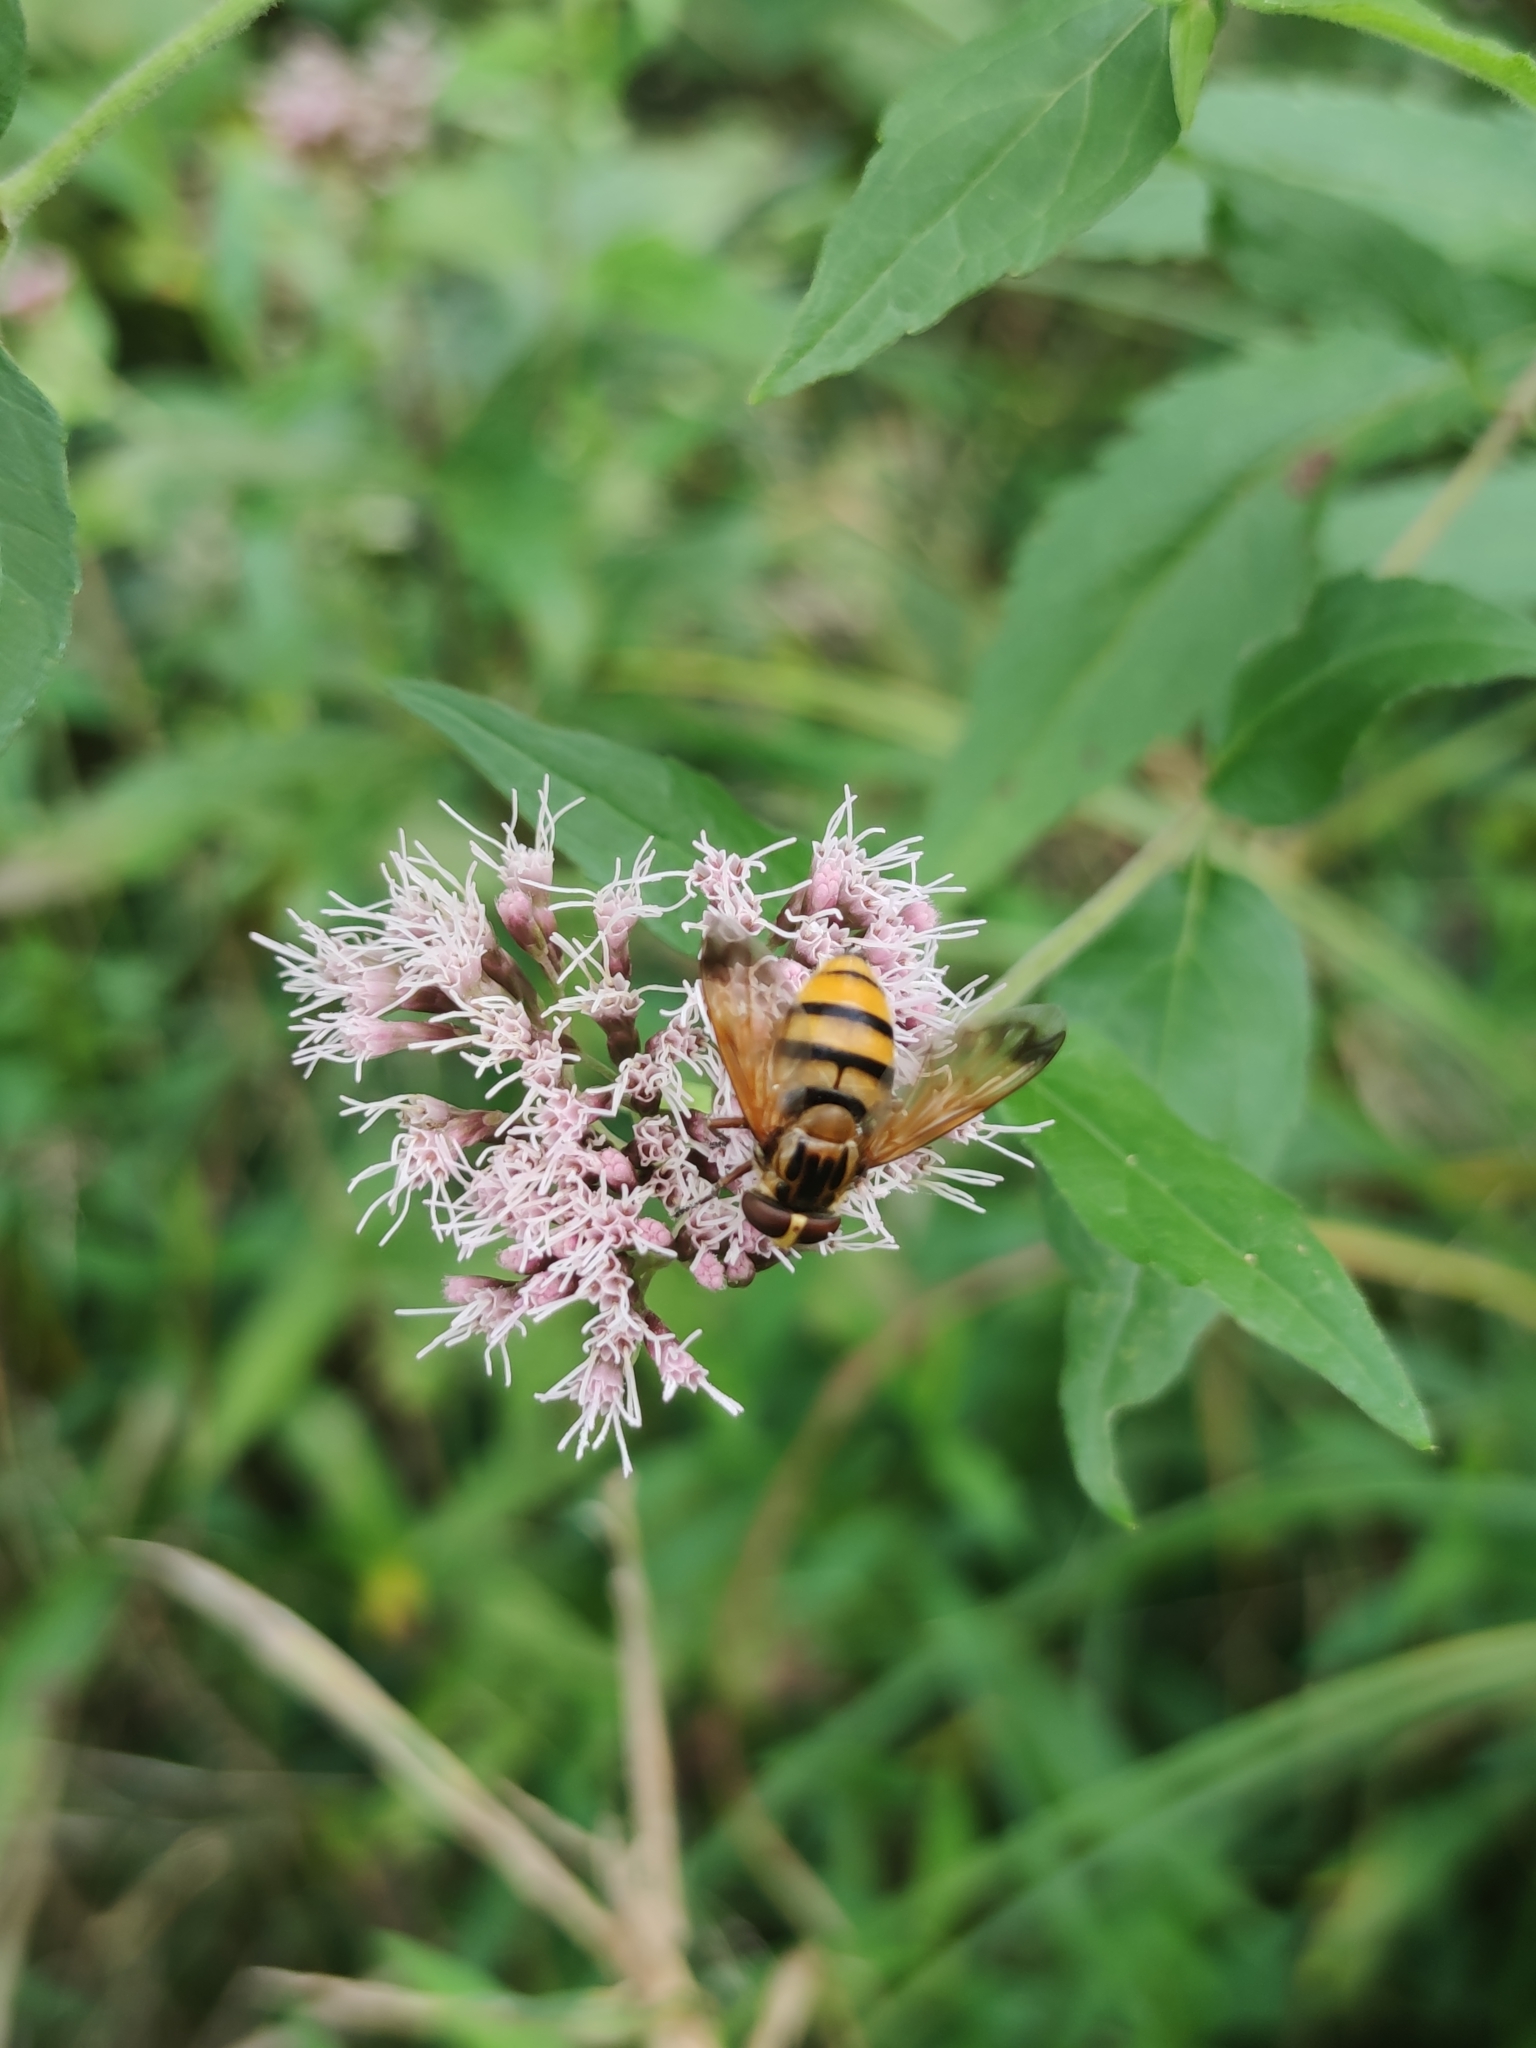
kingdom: Animalia
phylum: Arthropoda
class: Insecta
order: Diptera
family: Syrphidae
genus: Volucella
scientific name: Volucella inanis
